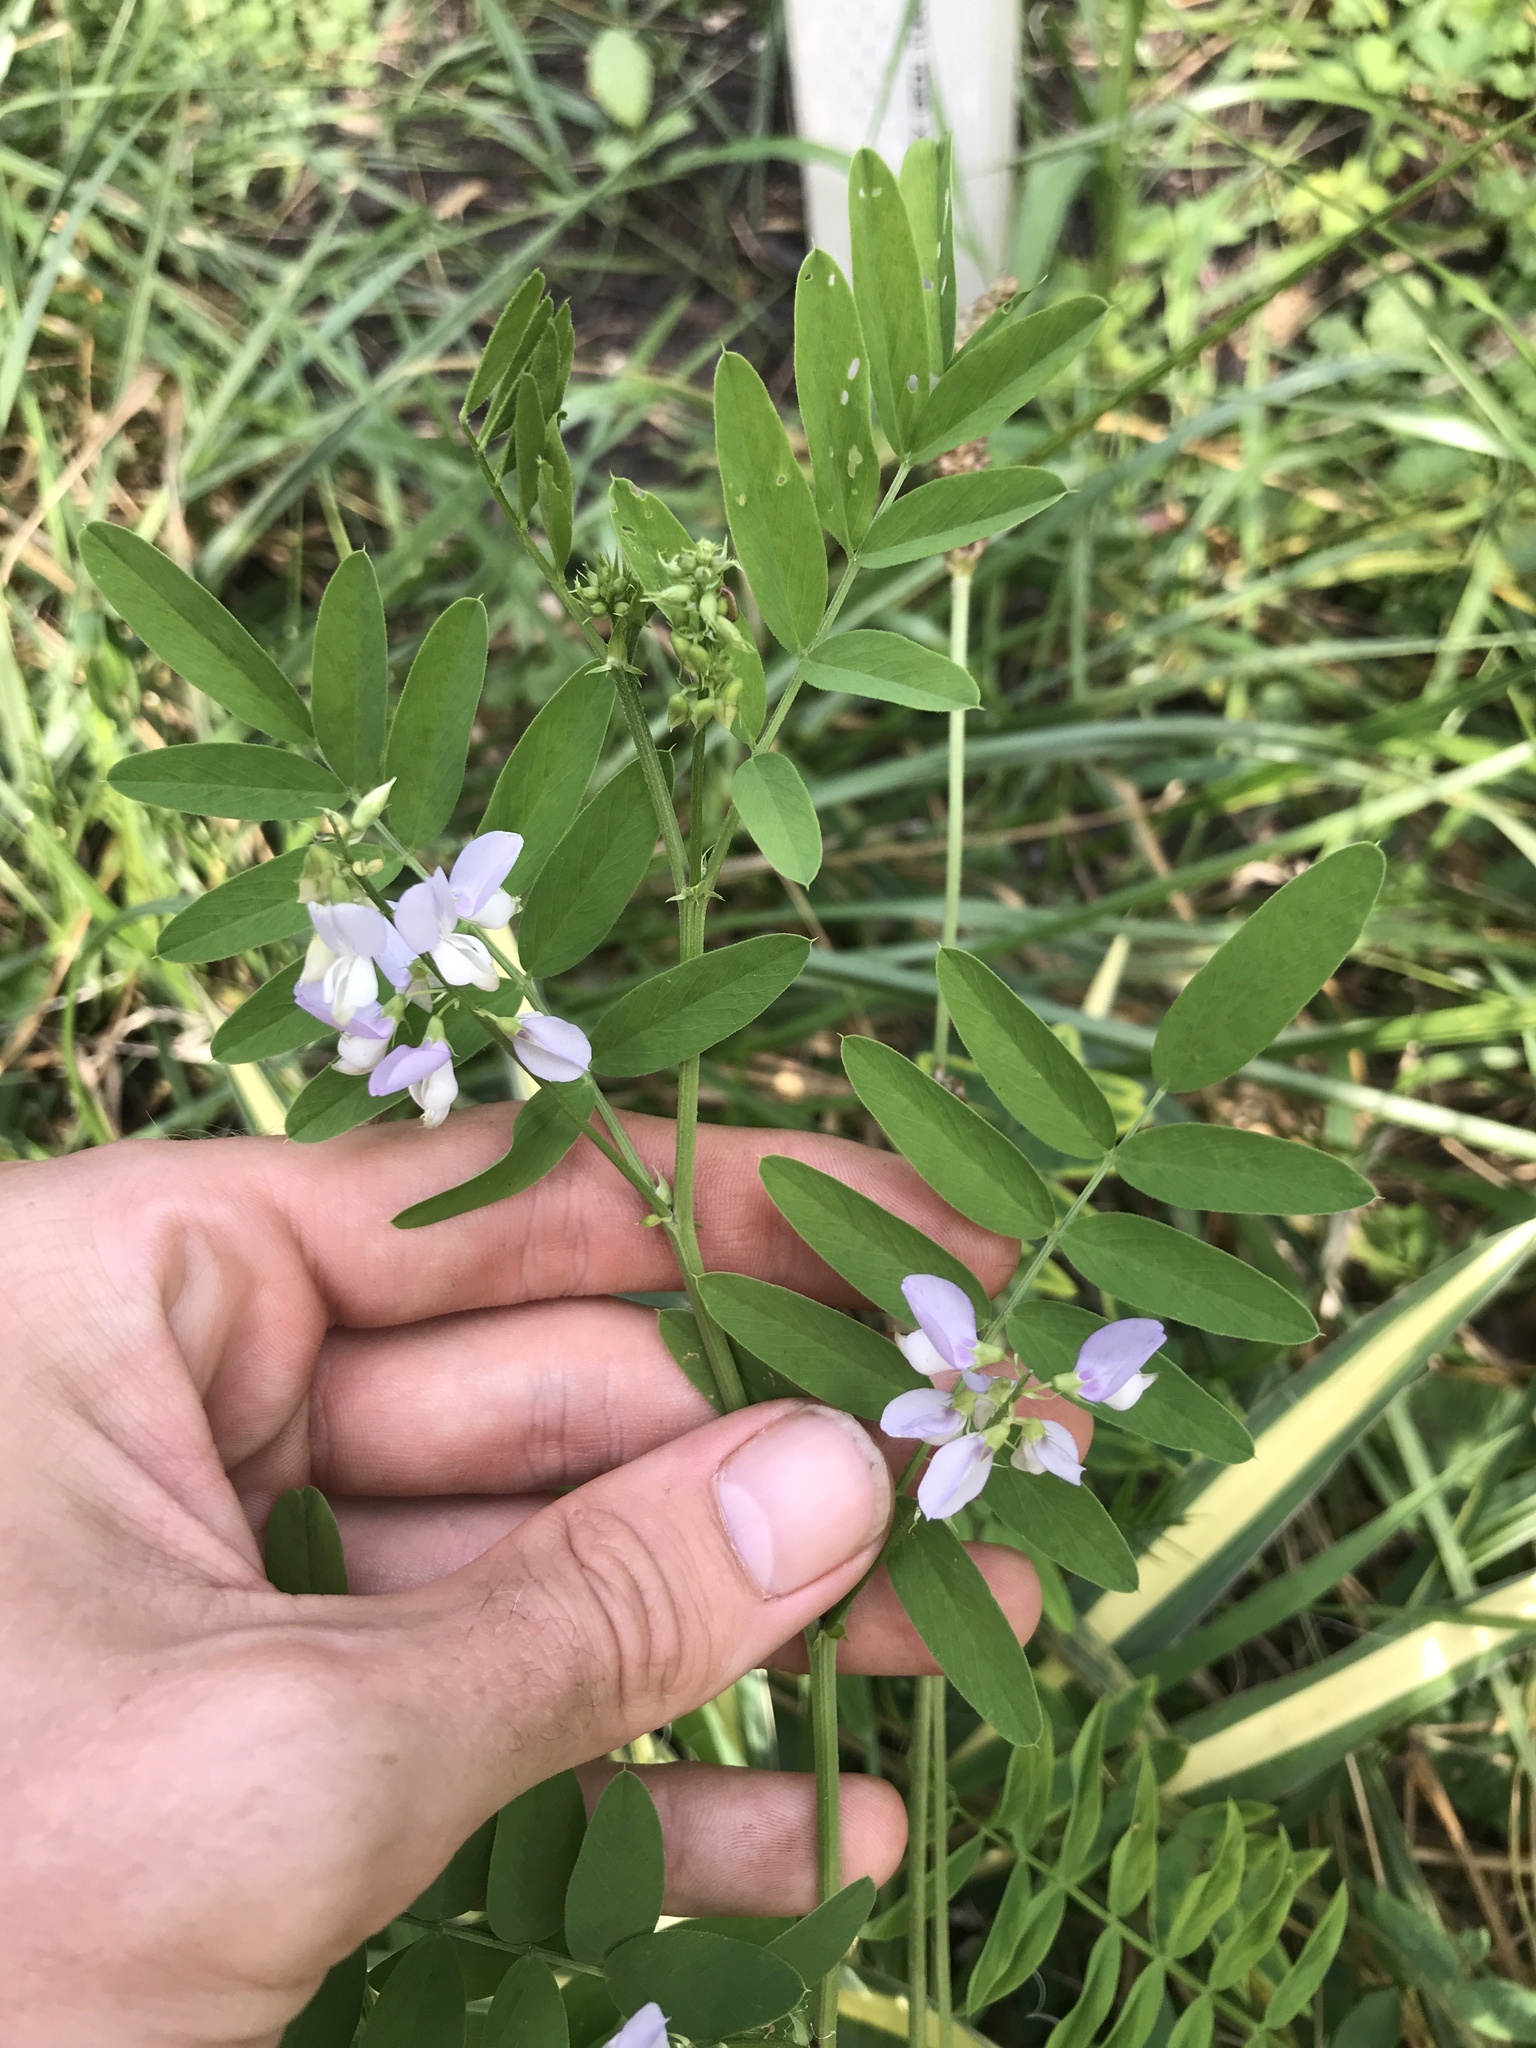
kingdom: Plantae
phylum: Tracheophyta
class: Magnoliopsida
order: Fabales
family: Fabaceae
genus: Galega
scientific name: Galega officinalis
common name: Goat's-rue
